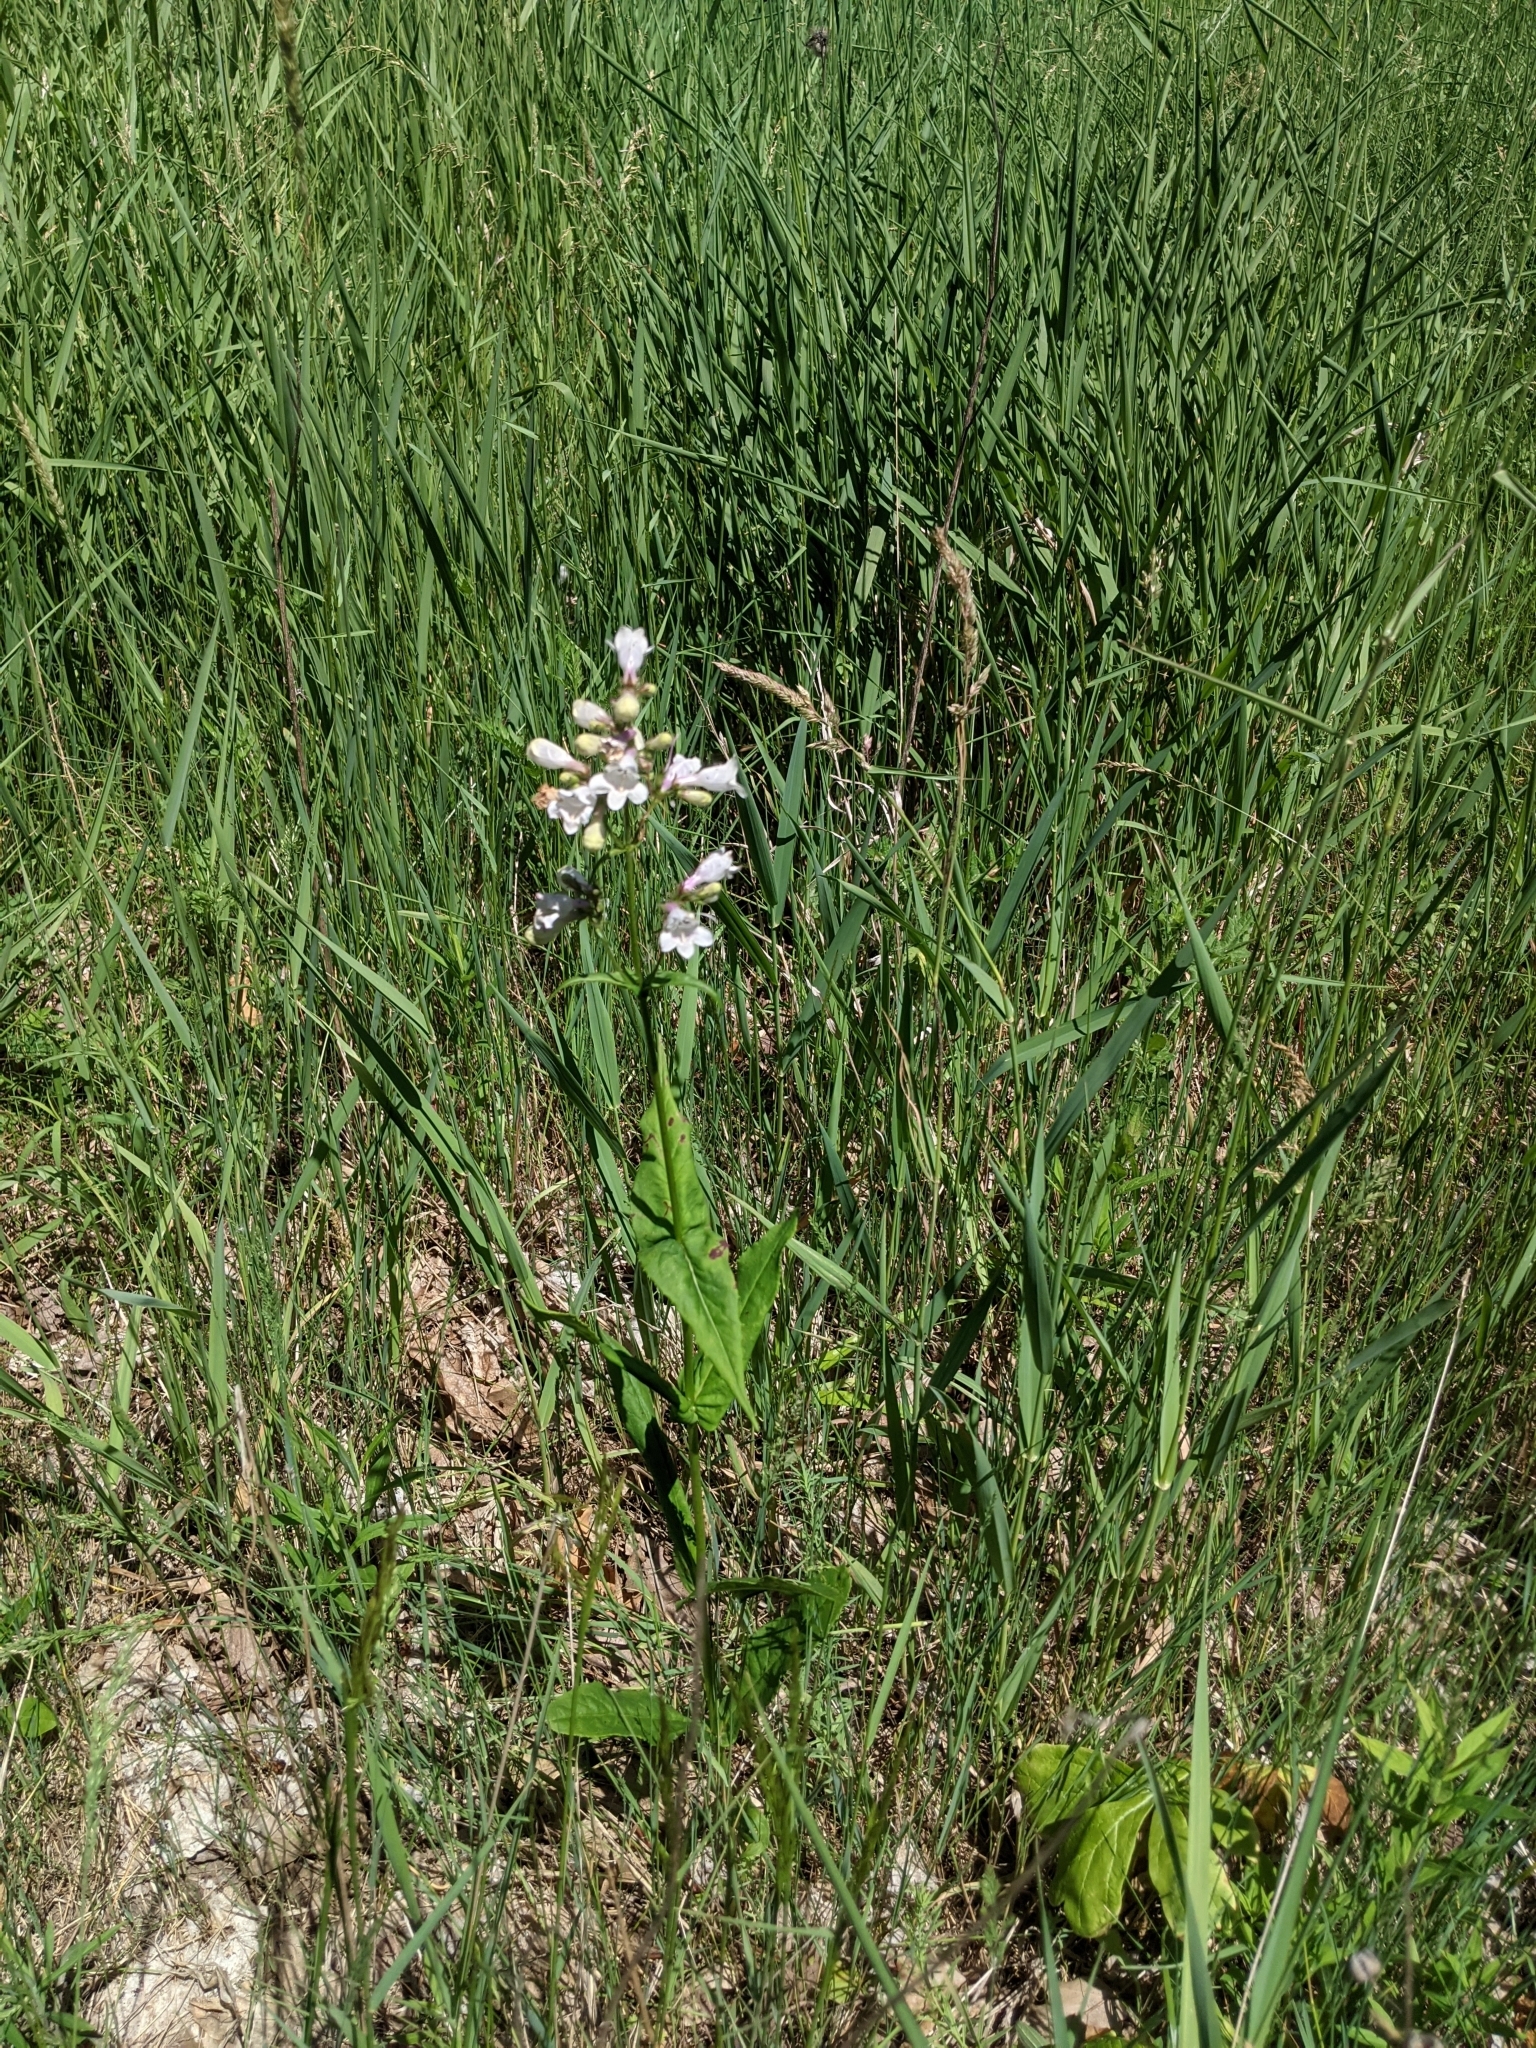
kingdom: Plantae
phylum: Tracheophyta
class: Magnoliopsida
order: Lamiales
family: Plantaginaceae
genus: Penstemon
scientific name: Penstemon digitalis
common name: Foxglove beardtongue
